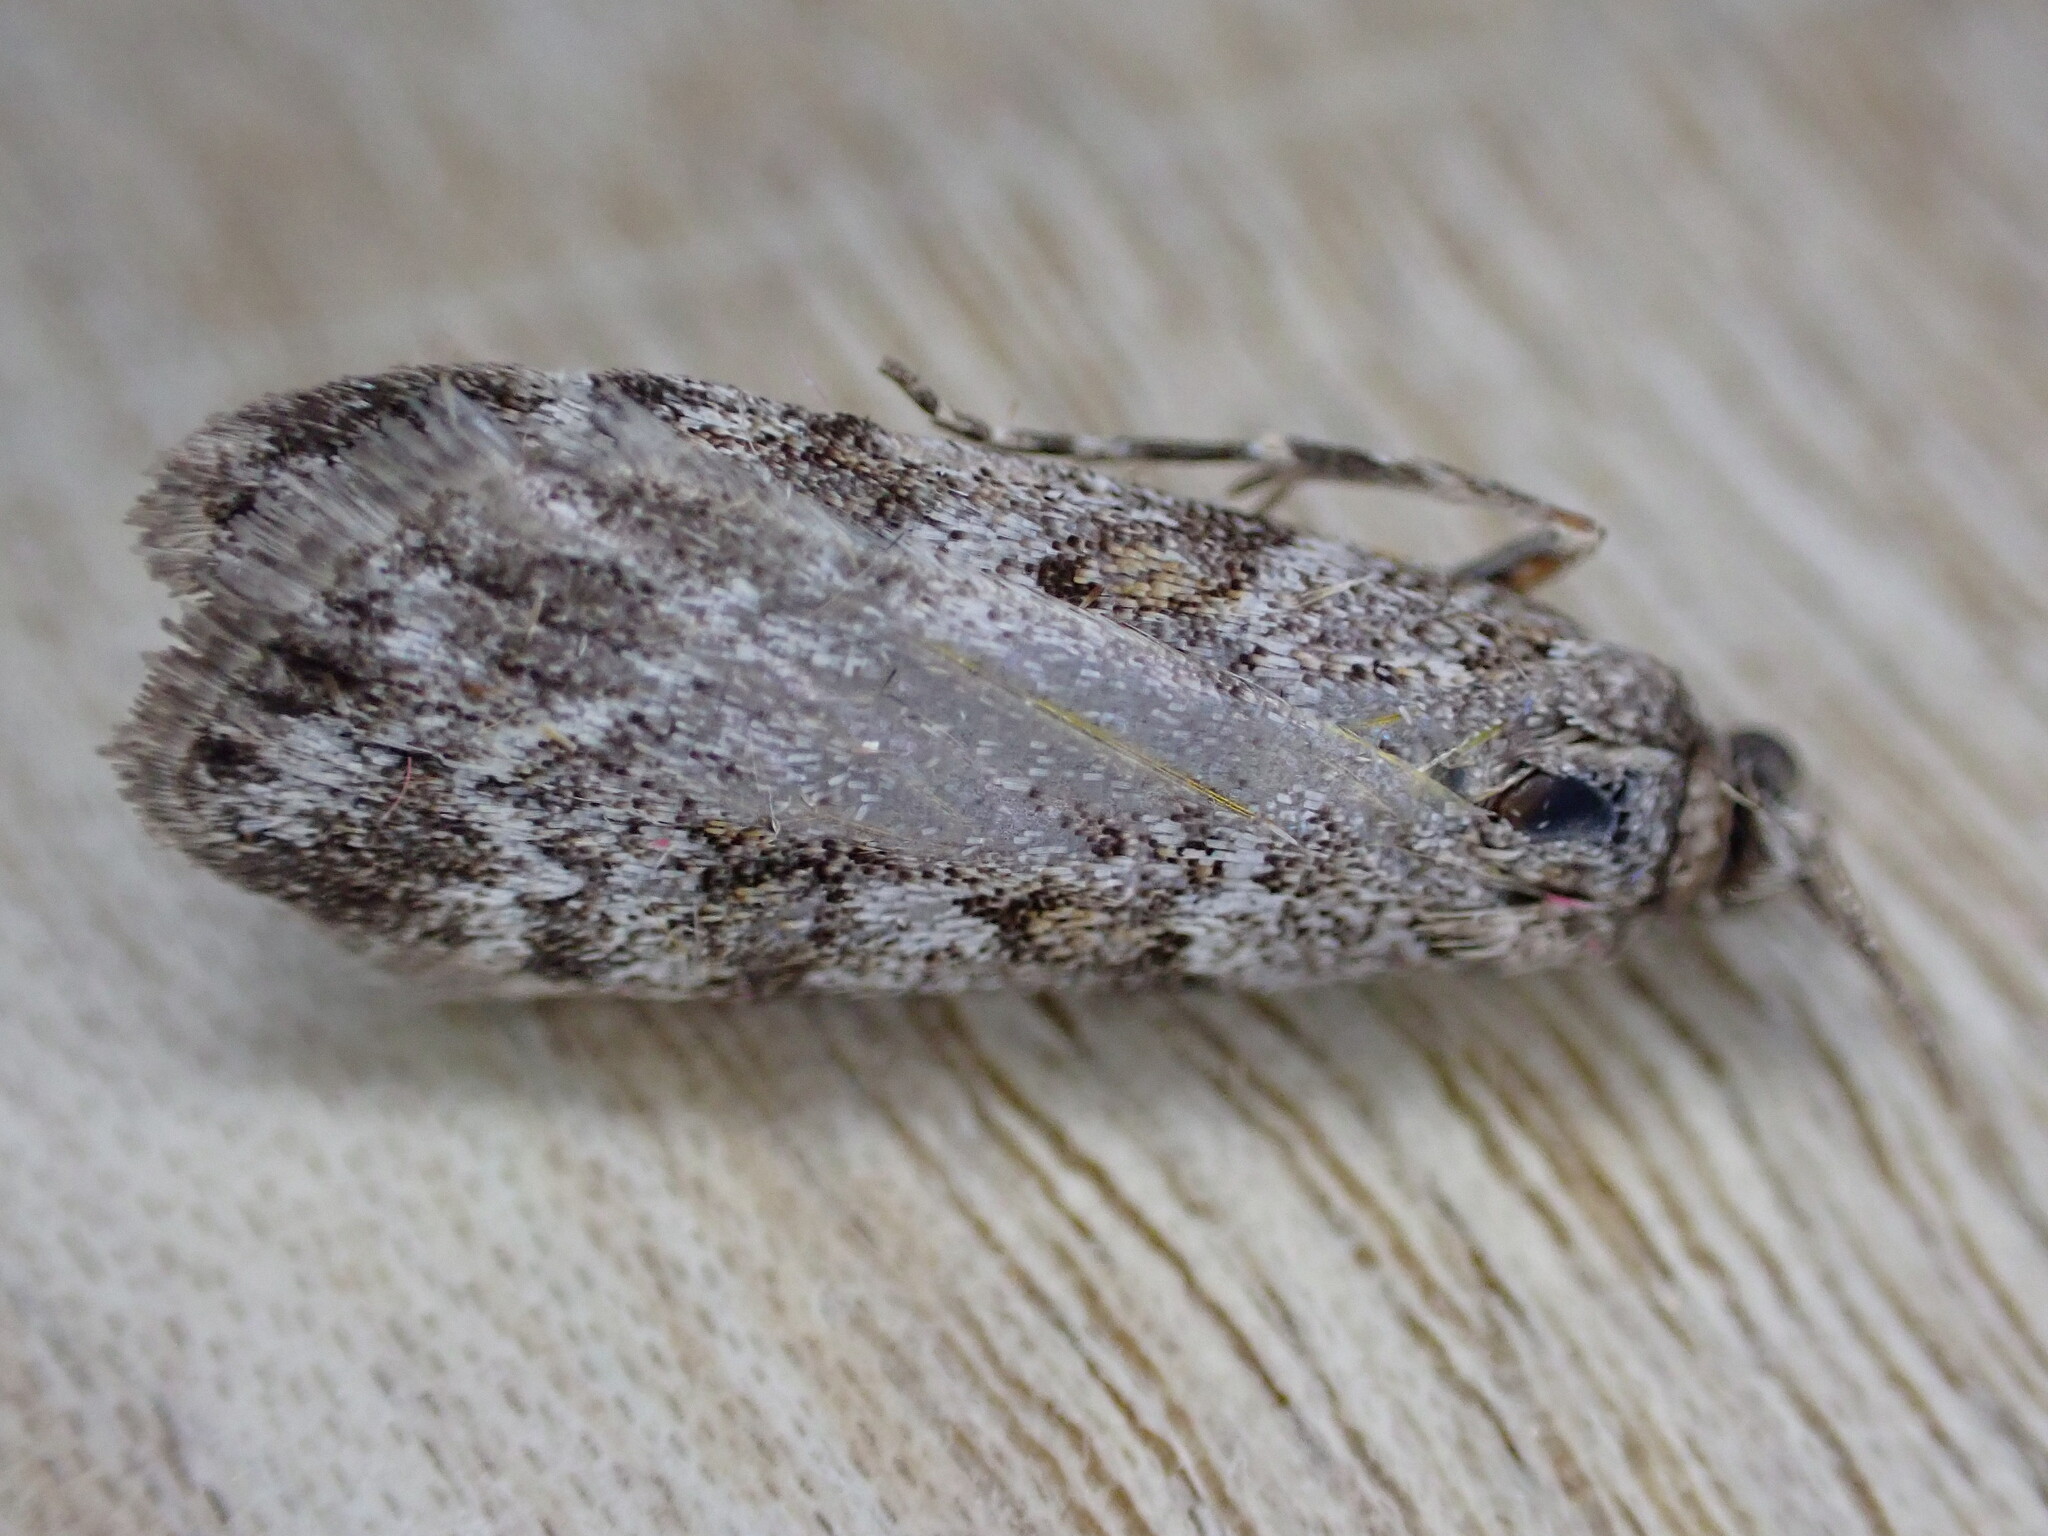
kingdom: Animalia
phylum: Arthropoda
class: Insecta
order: Lepidoptera
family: Crambidae
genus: Scoparia
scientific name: Scoparia ambigualis
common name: Common grey
